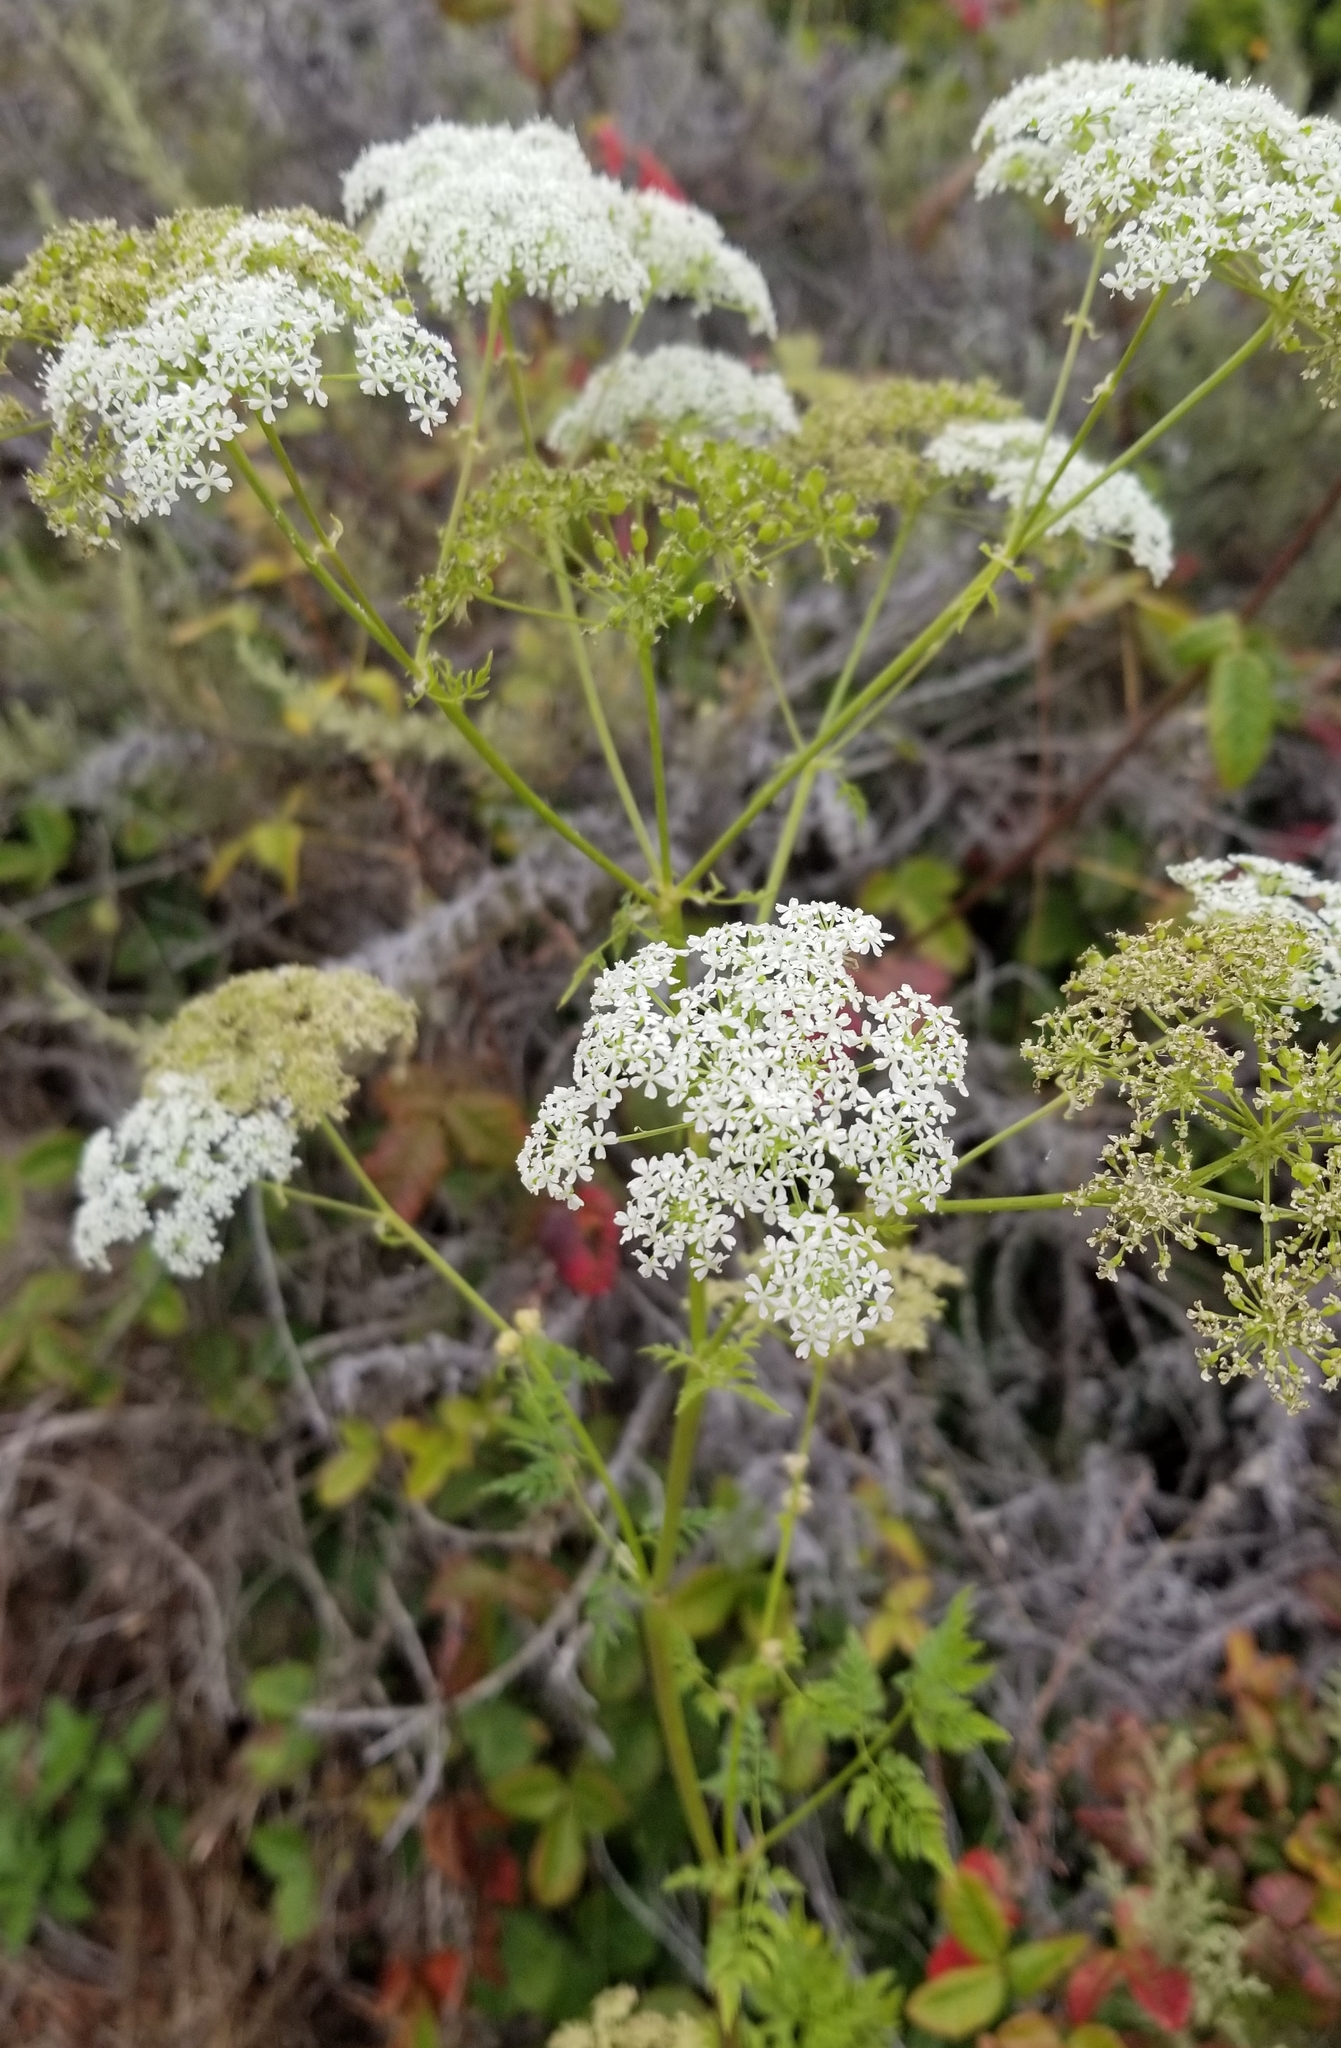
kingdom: Plantae
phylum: Tracheophyta
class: Magnoliopsida
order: Apiales
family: Apiaceae
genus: Conium
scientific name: Conium maculatum
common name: Hemlock
